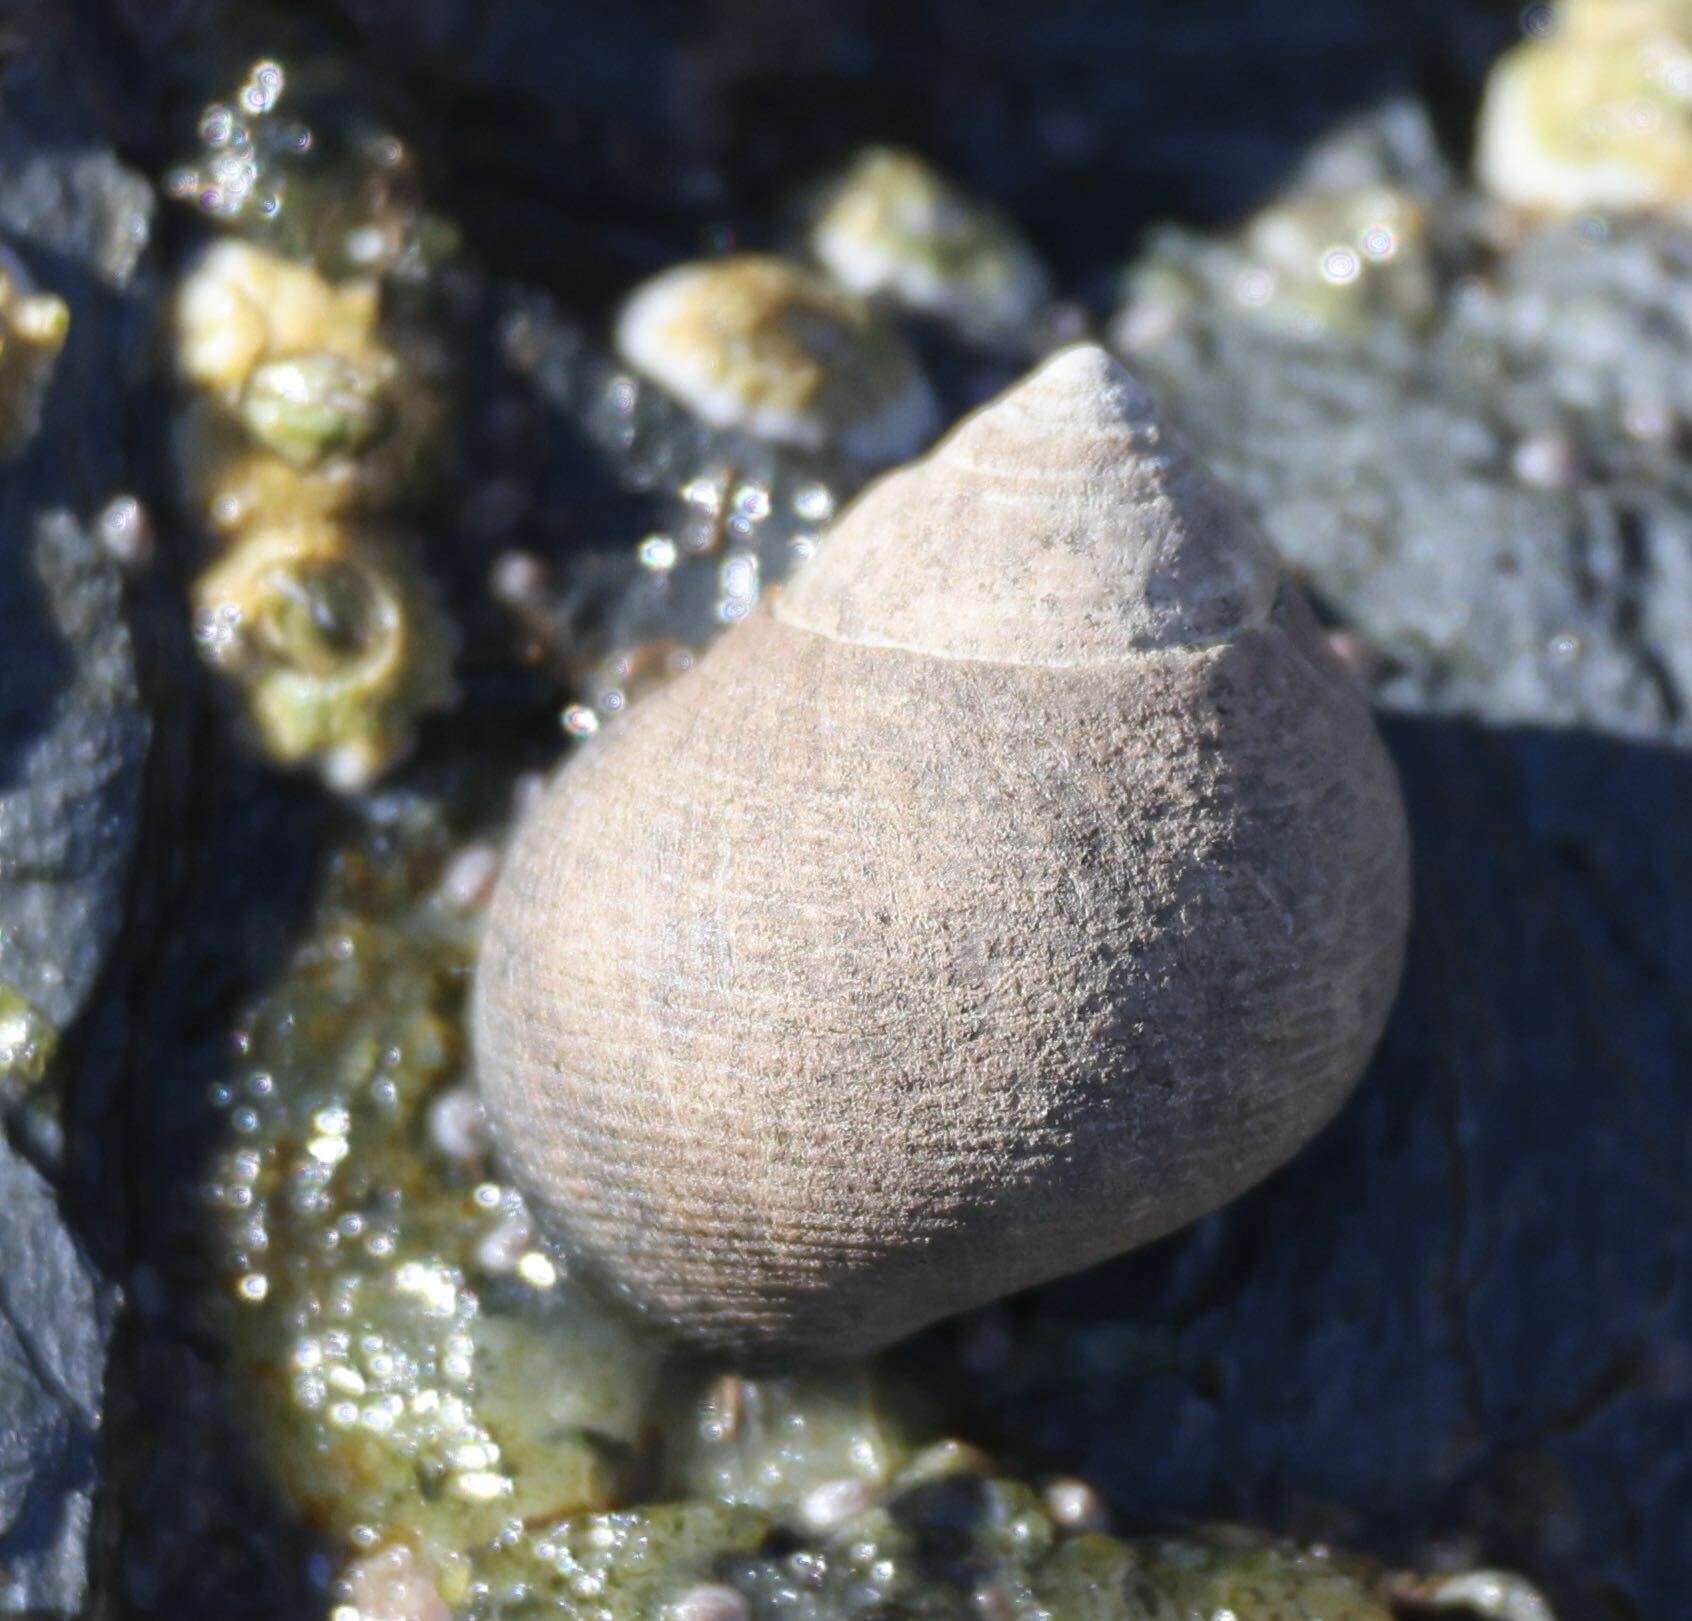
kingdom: Animalia
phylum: Mollusca
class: Gastropoda
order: Littorinimorpha
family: Littorinidae
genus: Littorina
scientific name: Littorina littorea
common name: Common periwinkle
